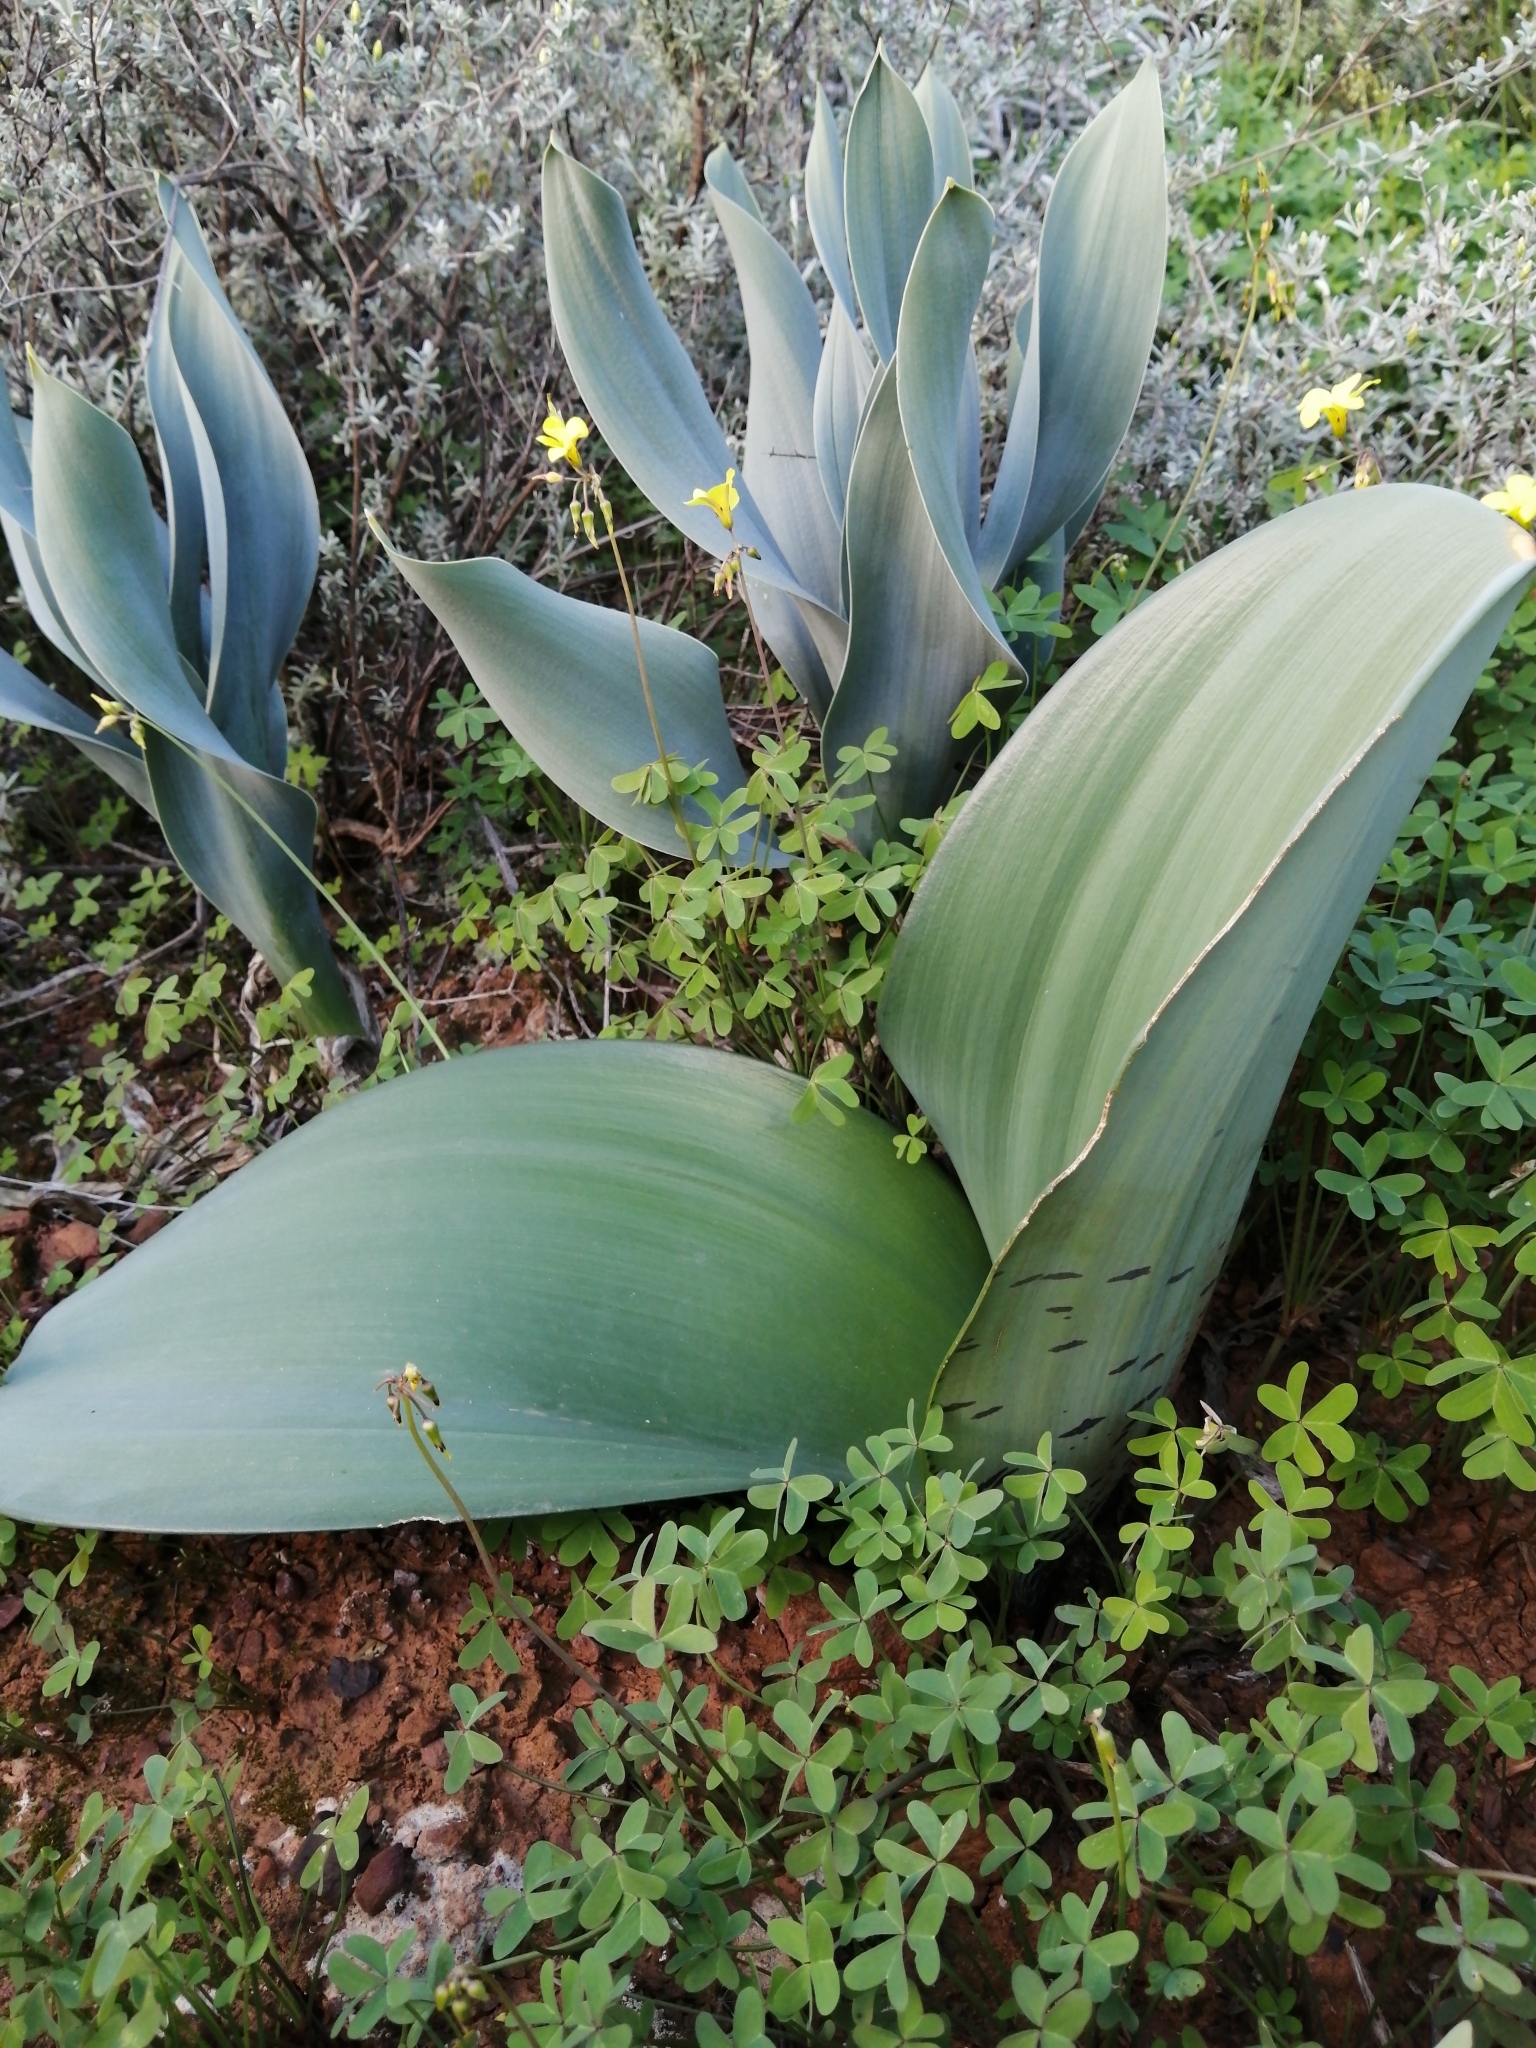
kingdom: Plantae
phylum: Tracheophyta
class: Liliopsida
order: Asparagales
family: Amaryllidaceae
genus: Haemanthus
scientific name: Haemanthus coccineus
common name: Cape-tulip
